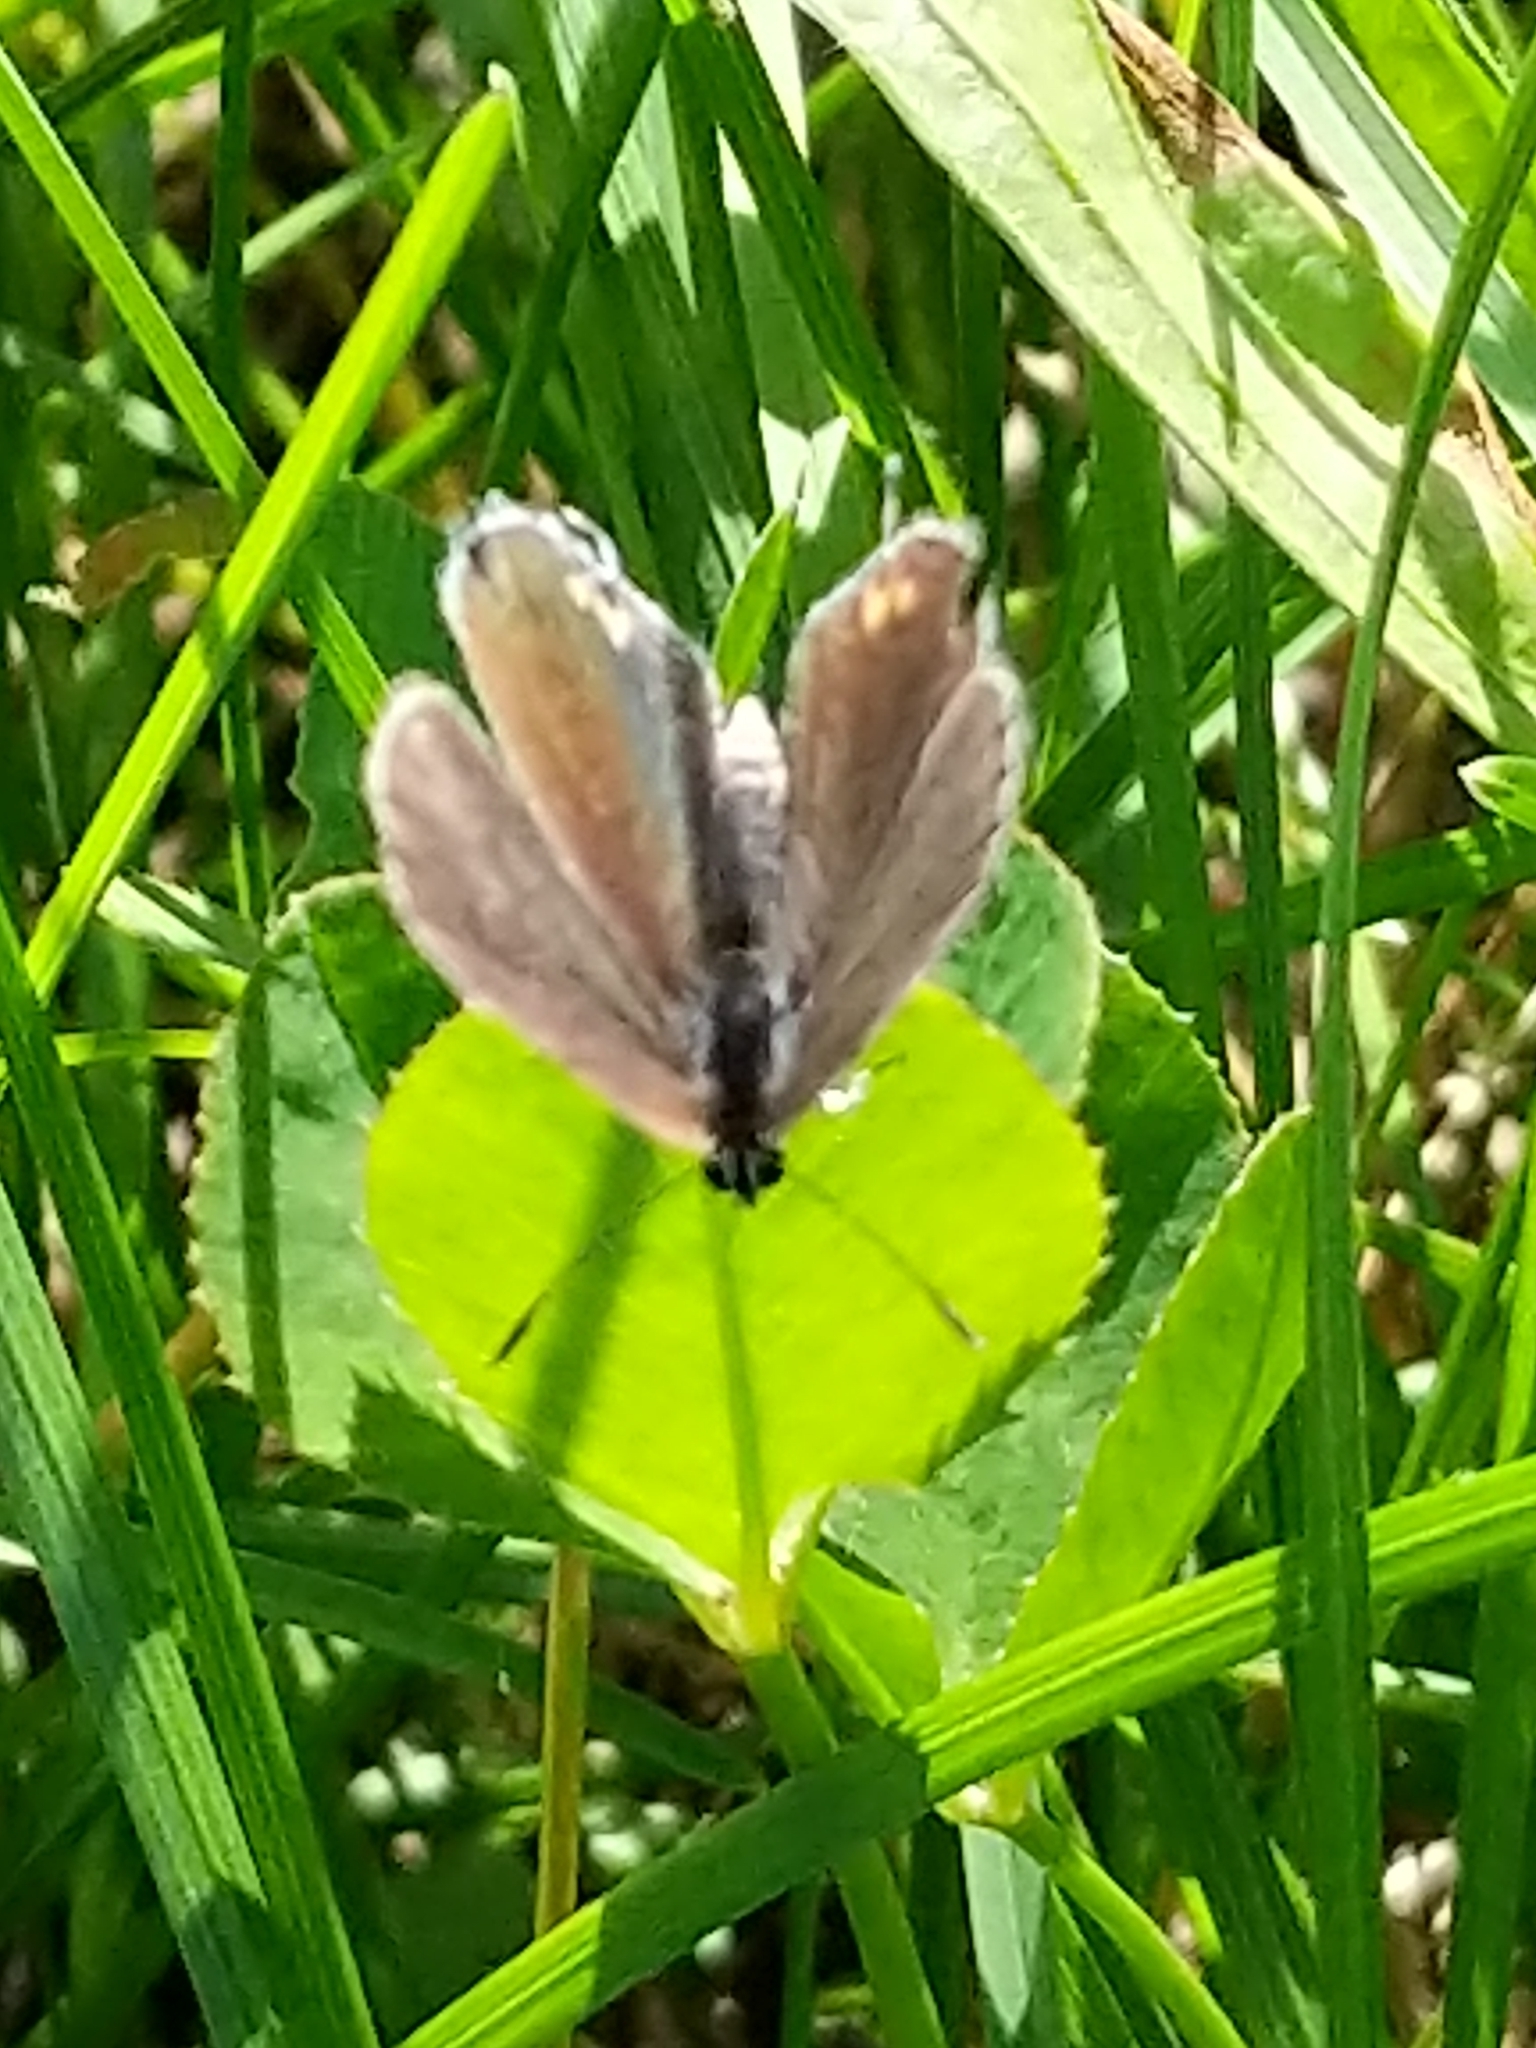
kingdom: Animalia
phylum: Arthropoda
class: Insecta
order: Lepidoptera
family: Lycaenidae
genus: Elkalyce
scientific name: Elkalyce comyntas
